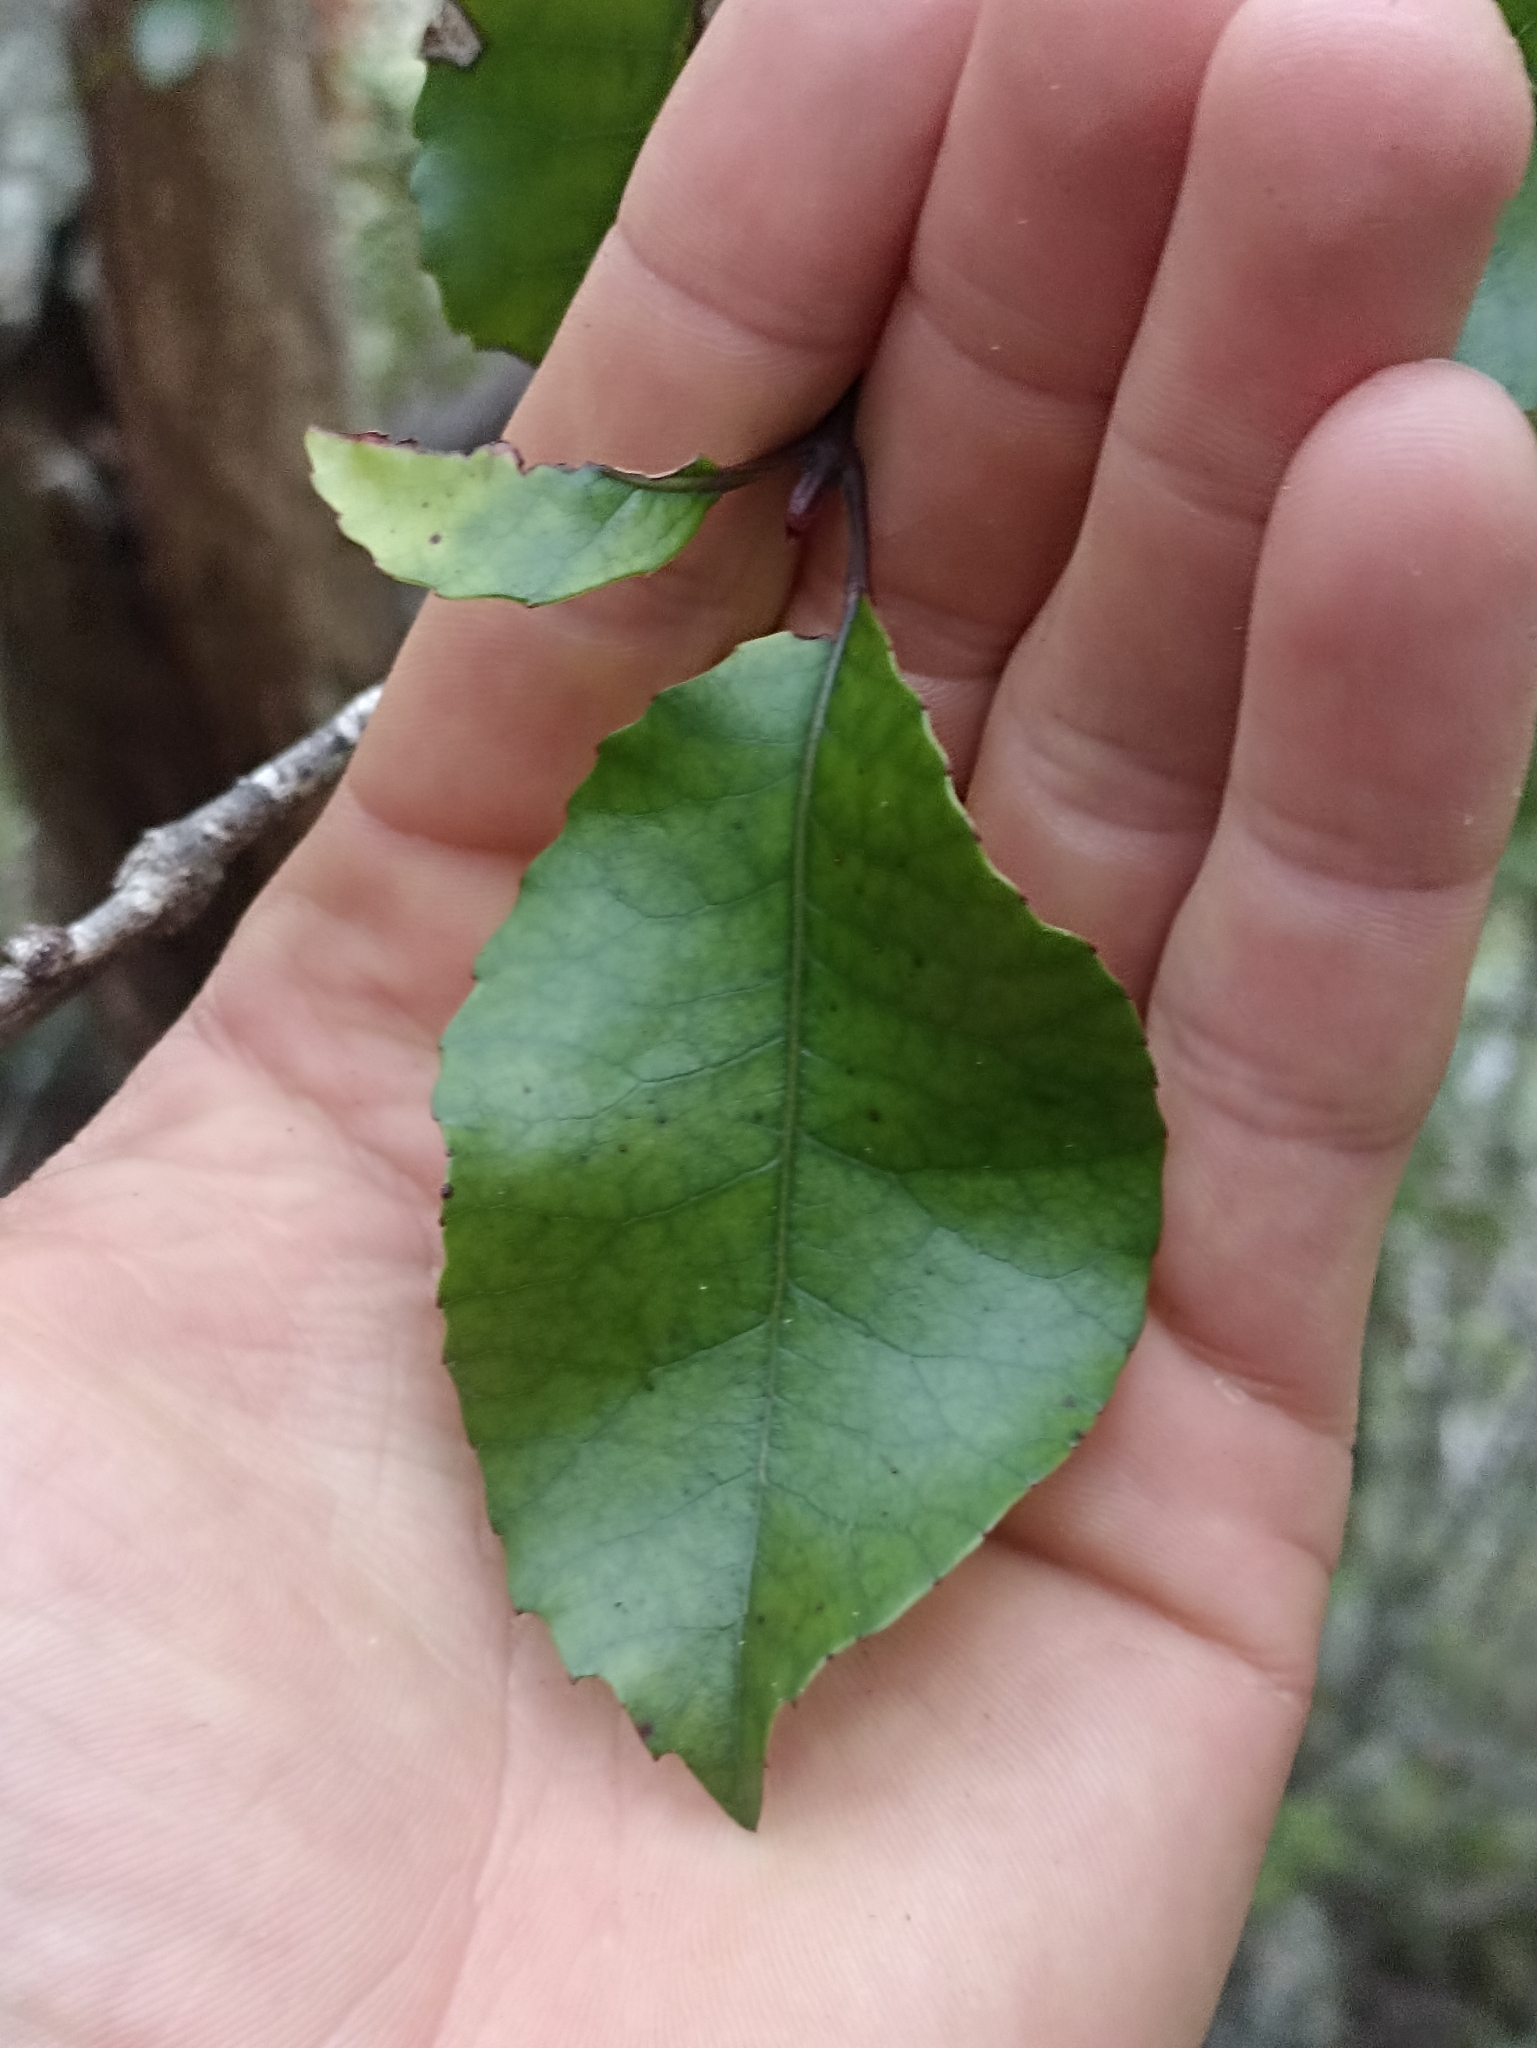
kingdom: Plantae
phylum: Tracheophyta
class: Magnoliopsida
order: Oxalidales
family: Cunoniaceae
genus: Pterophylla
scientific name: Pterophylla racemosa
